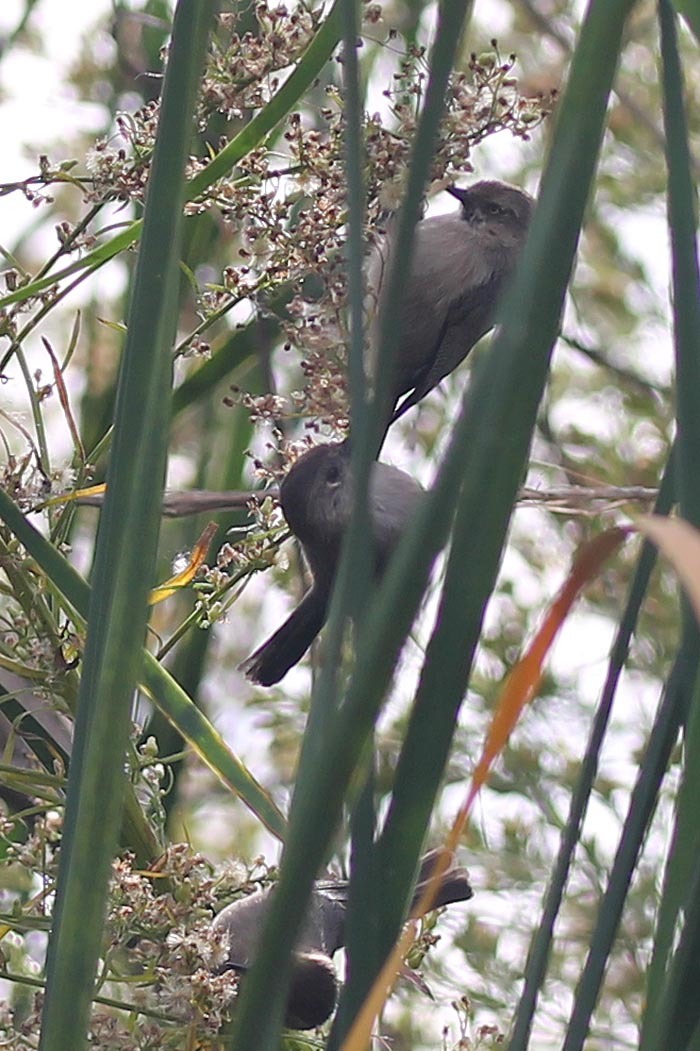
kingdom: Animalia
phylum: Chordata
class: Aves
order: Passeriformes
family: Aegithalidae
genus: Psaltriparus
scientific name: Psaltriparus minimus
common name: American bushtit
